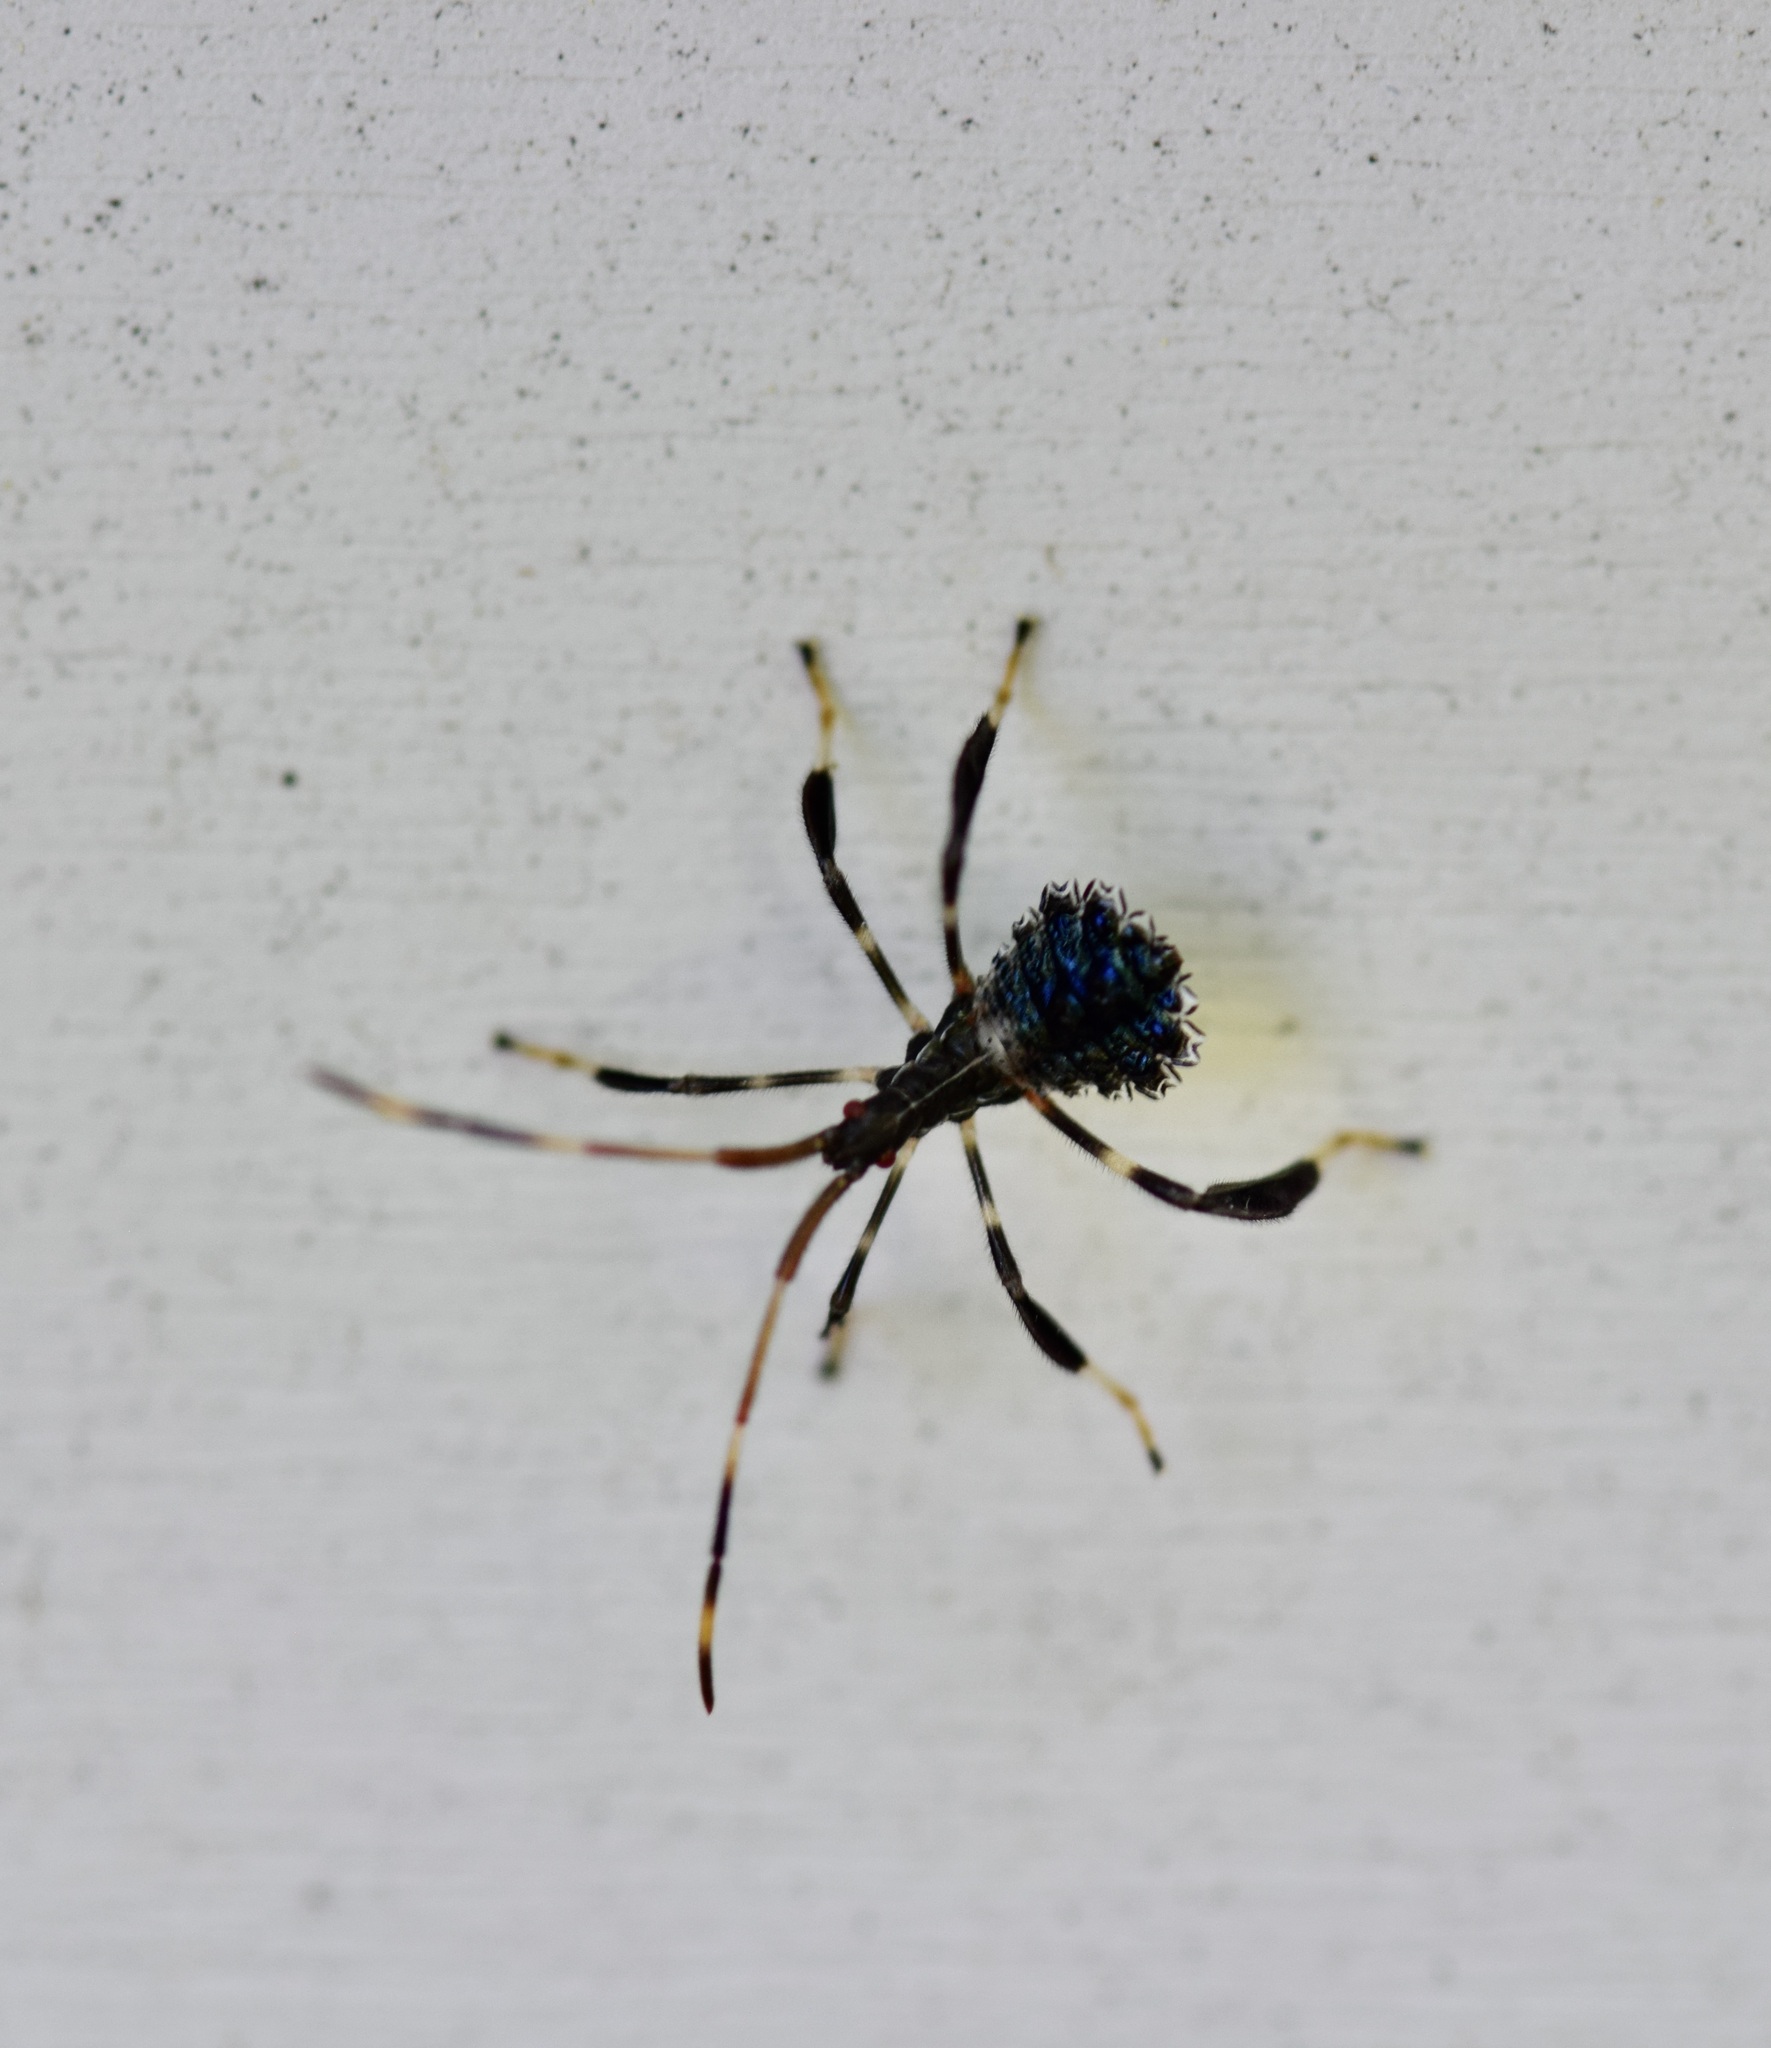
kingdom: Animalia
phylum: Arthropoda
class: Insecta
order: Hemiptera
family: Coreidae
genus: Acanthocephala
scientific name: Acanthocephala terminalis
